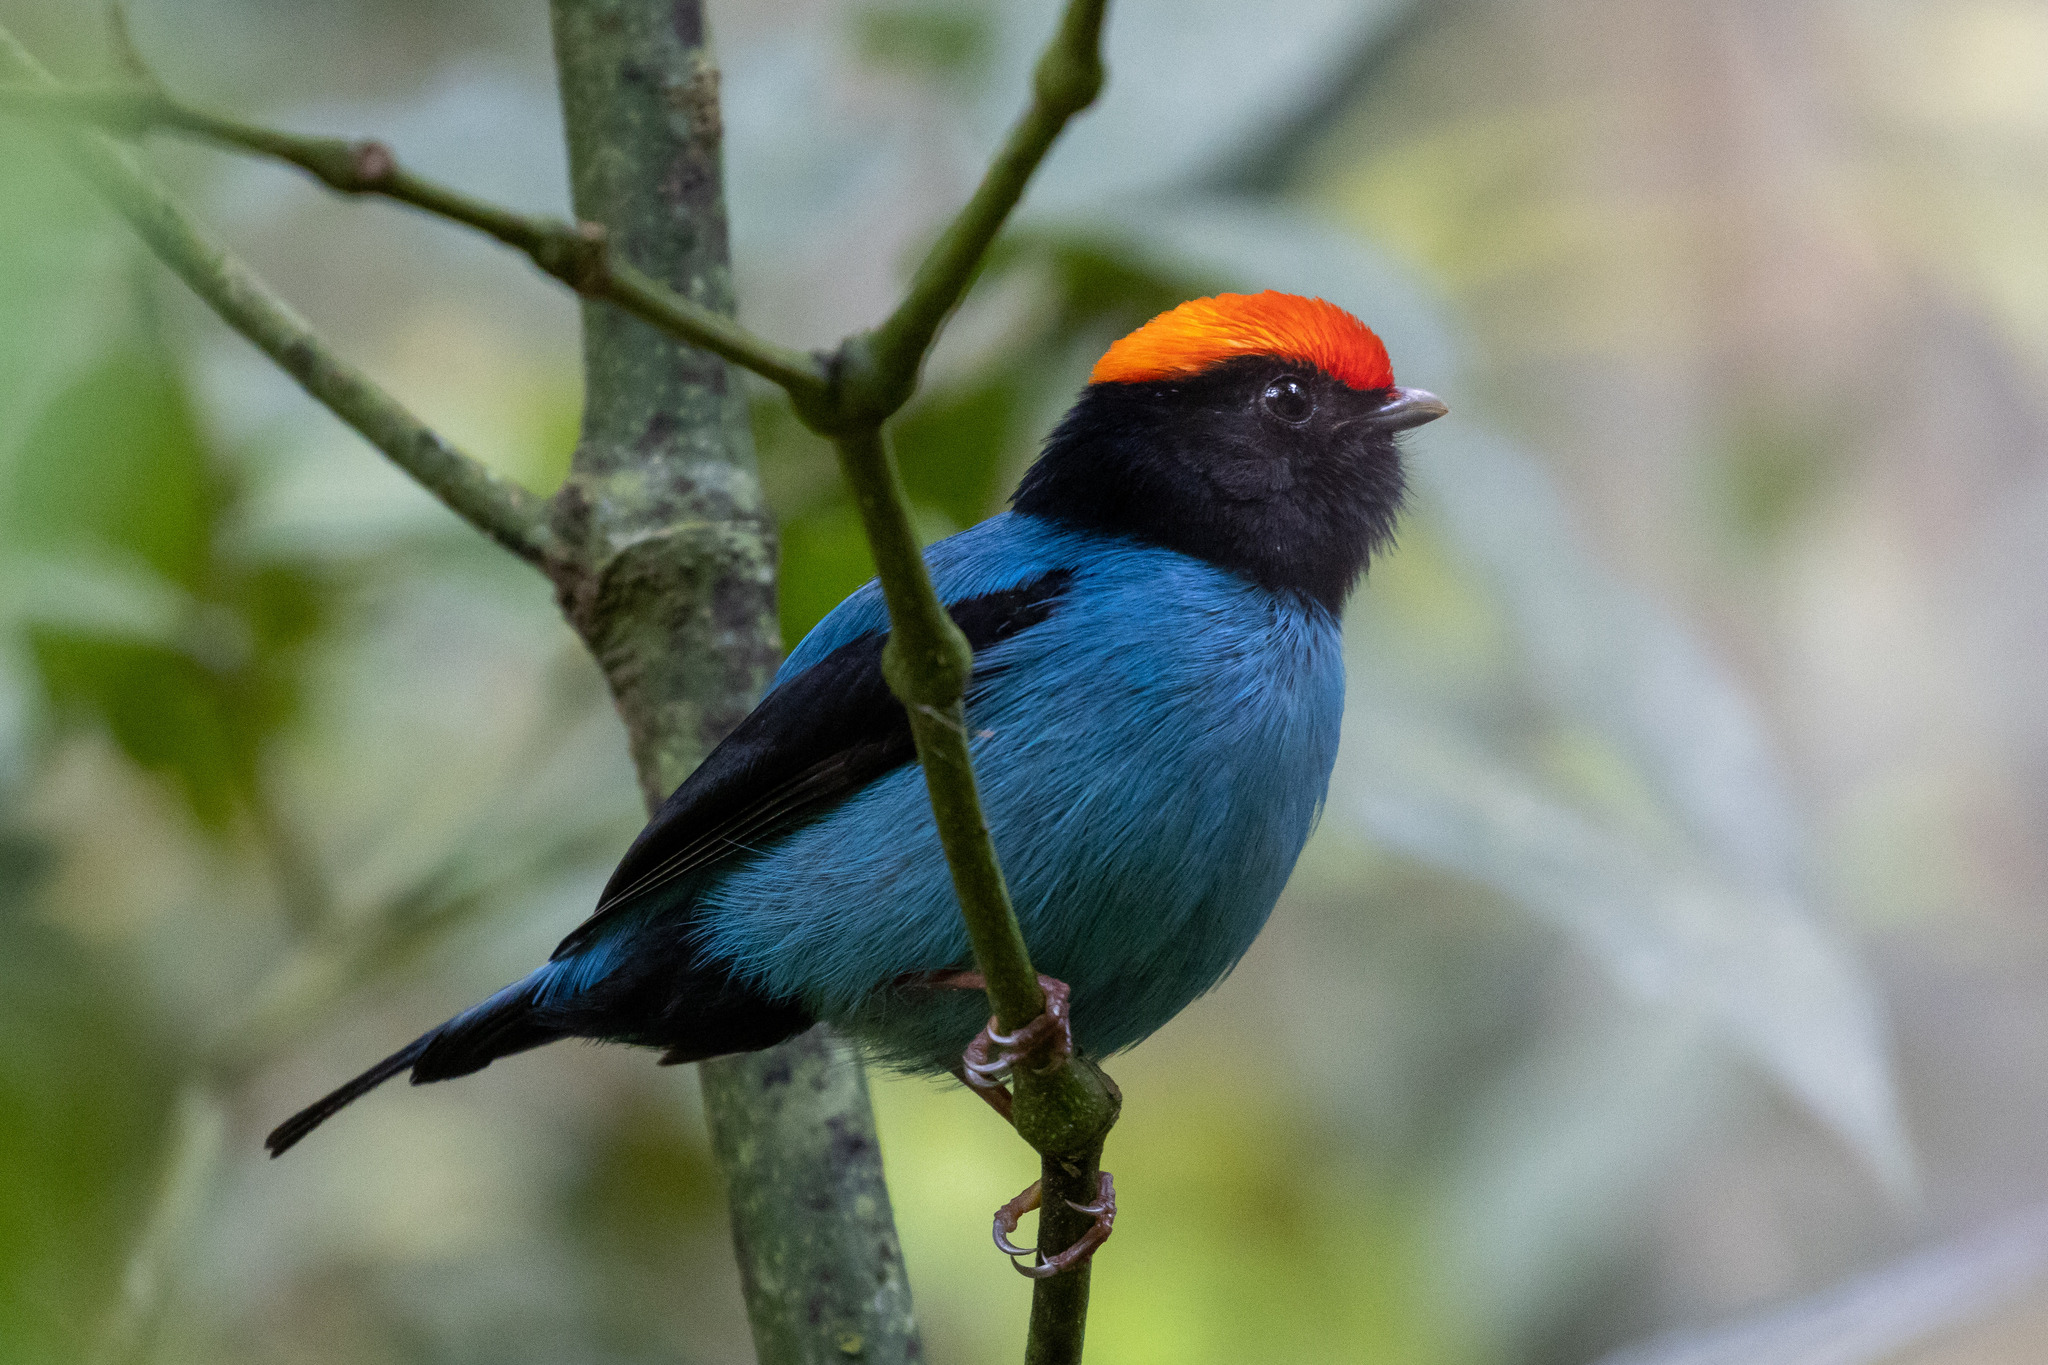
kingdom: Animalia
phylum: Chordata
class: Aves
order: Passeriformes
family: Pipridae
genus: Chiroxiphia
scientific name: Chiroxiphia caudata
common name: Blue manakin
